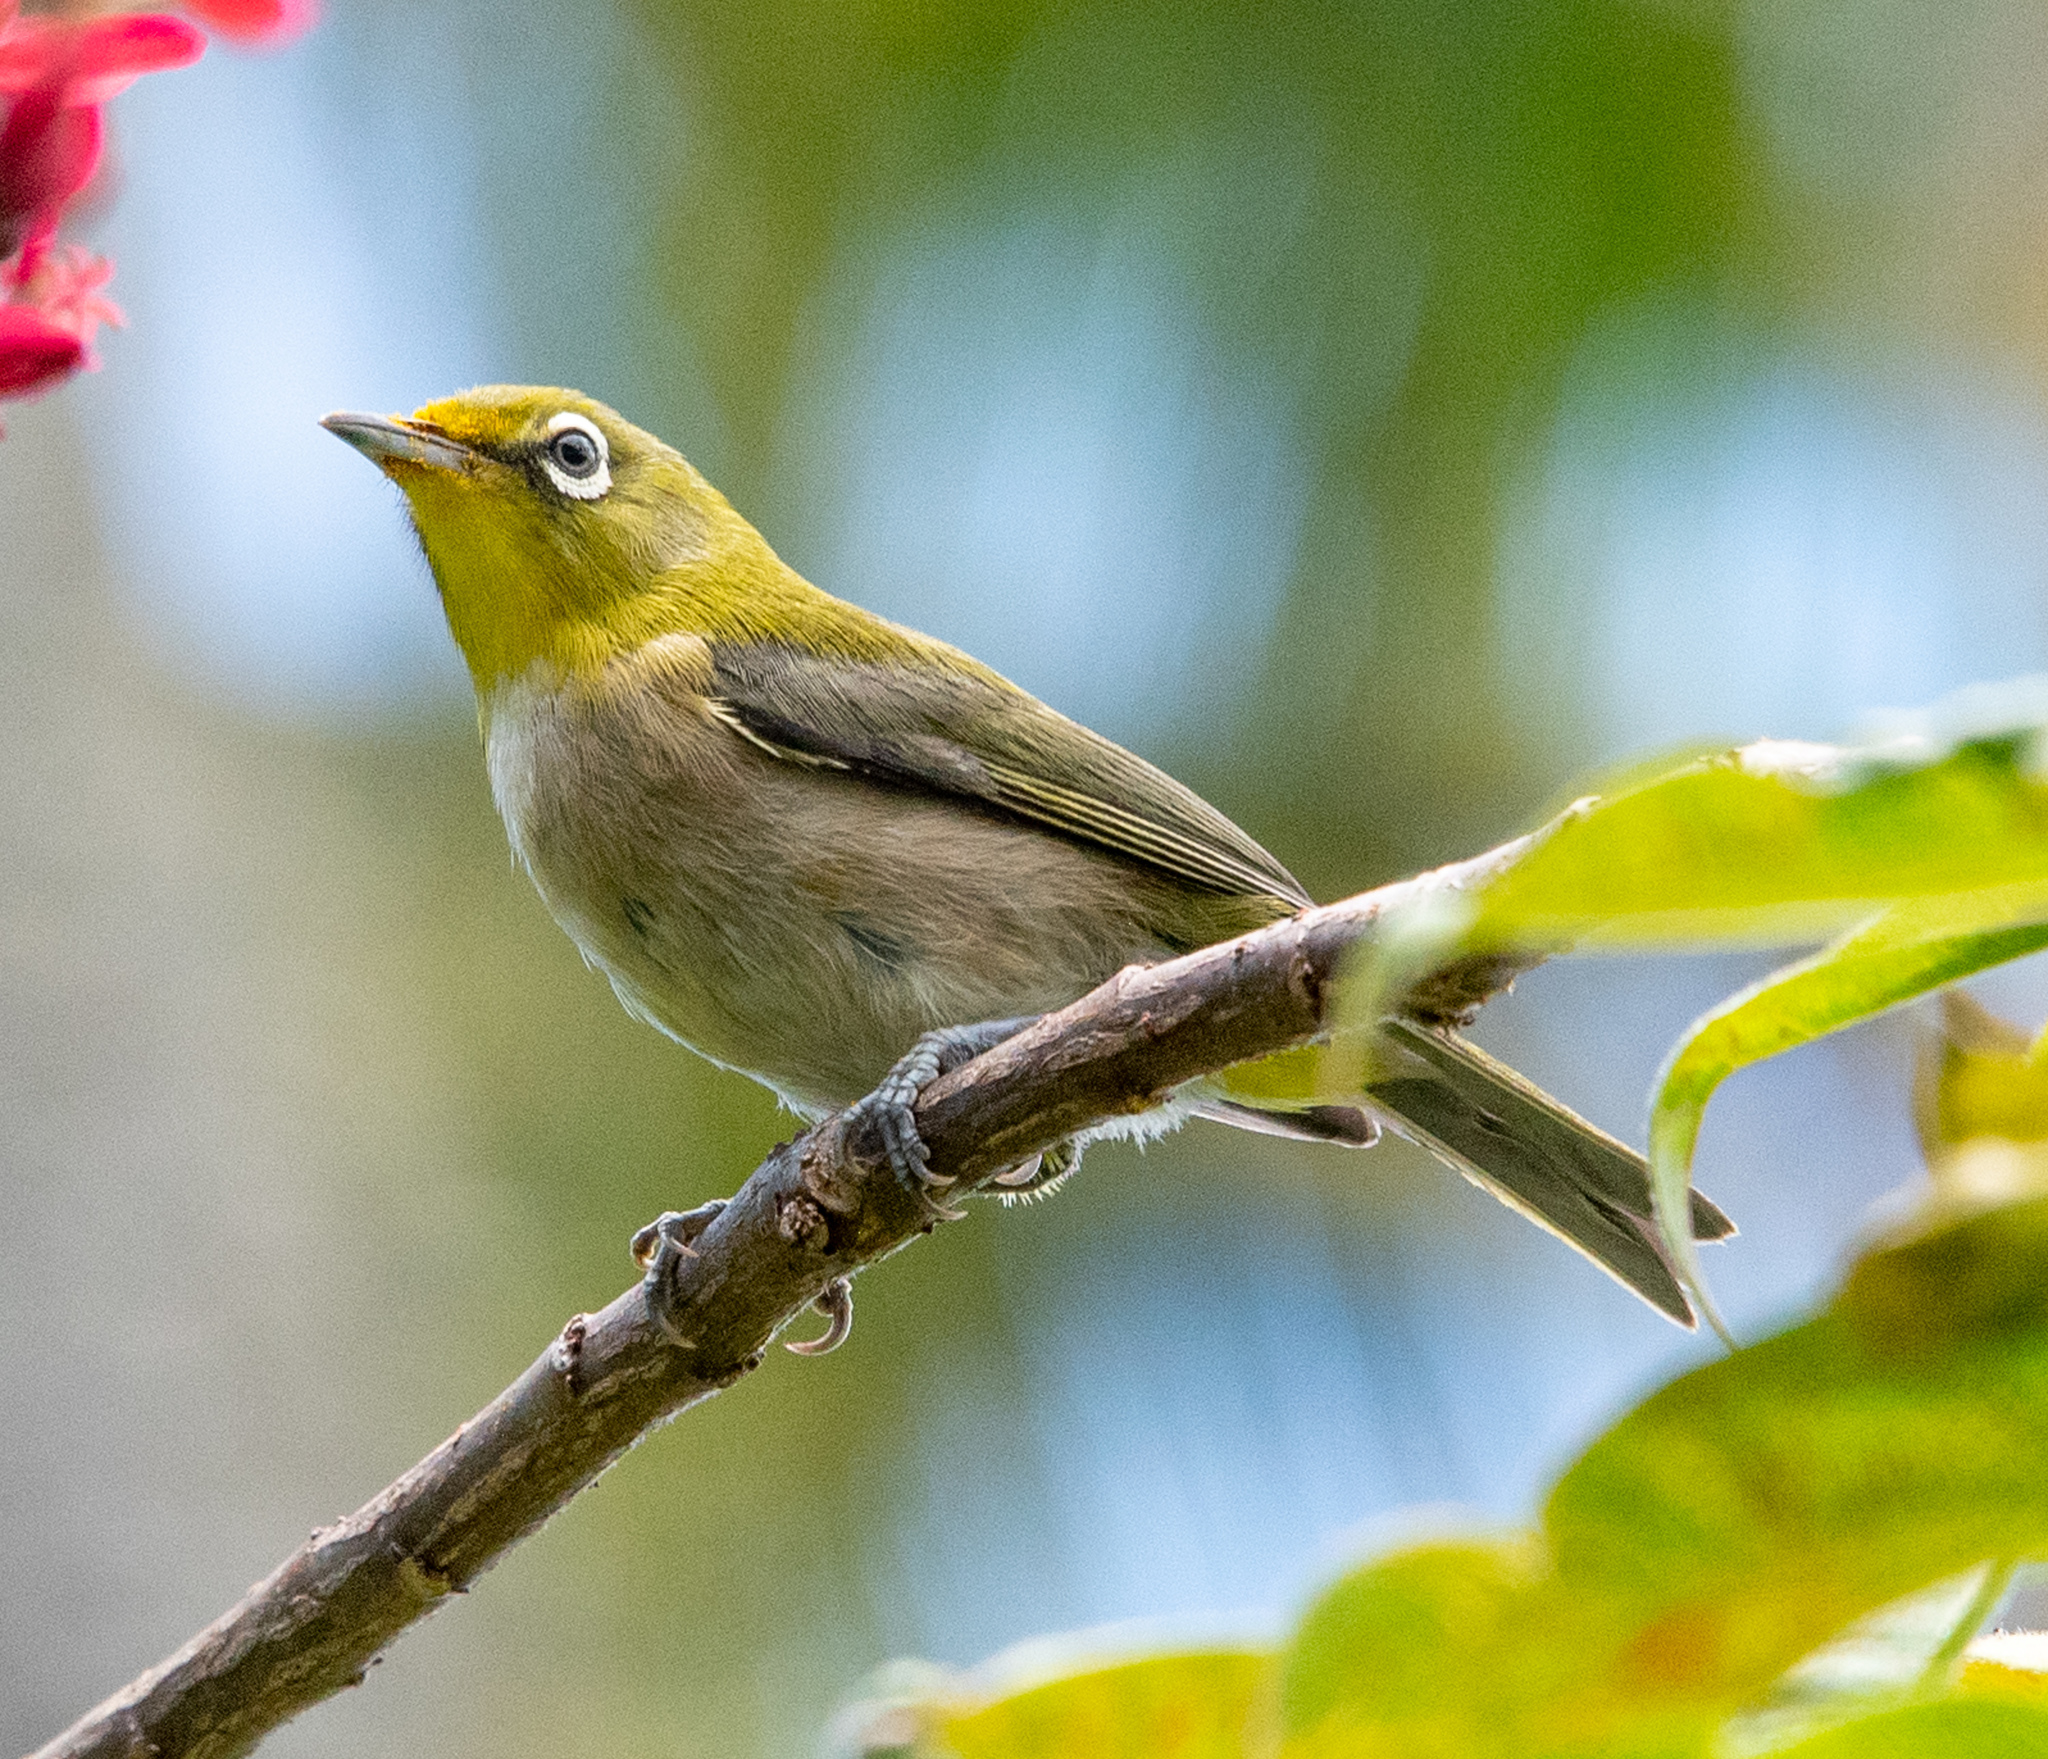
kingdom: Animalia
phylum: Chordata
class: Aves
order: Passeriformes
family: Zosteropidae
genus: Zosterops
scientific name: Zosterops japonicus
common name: Japanese white-eye
